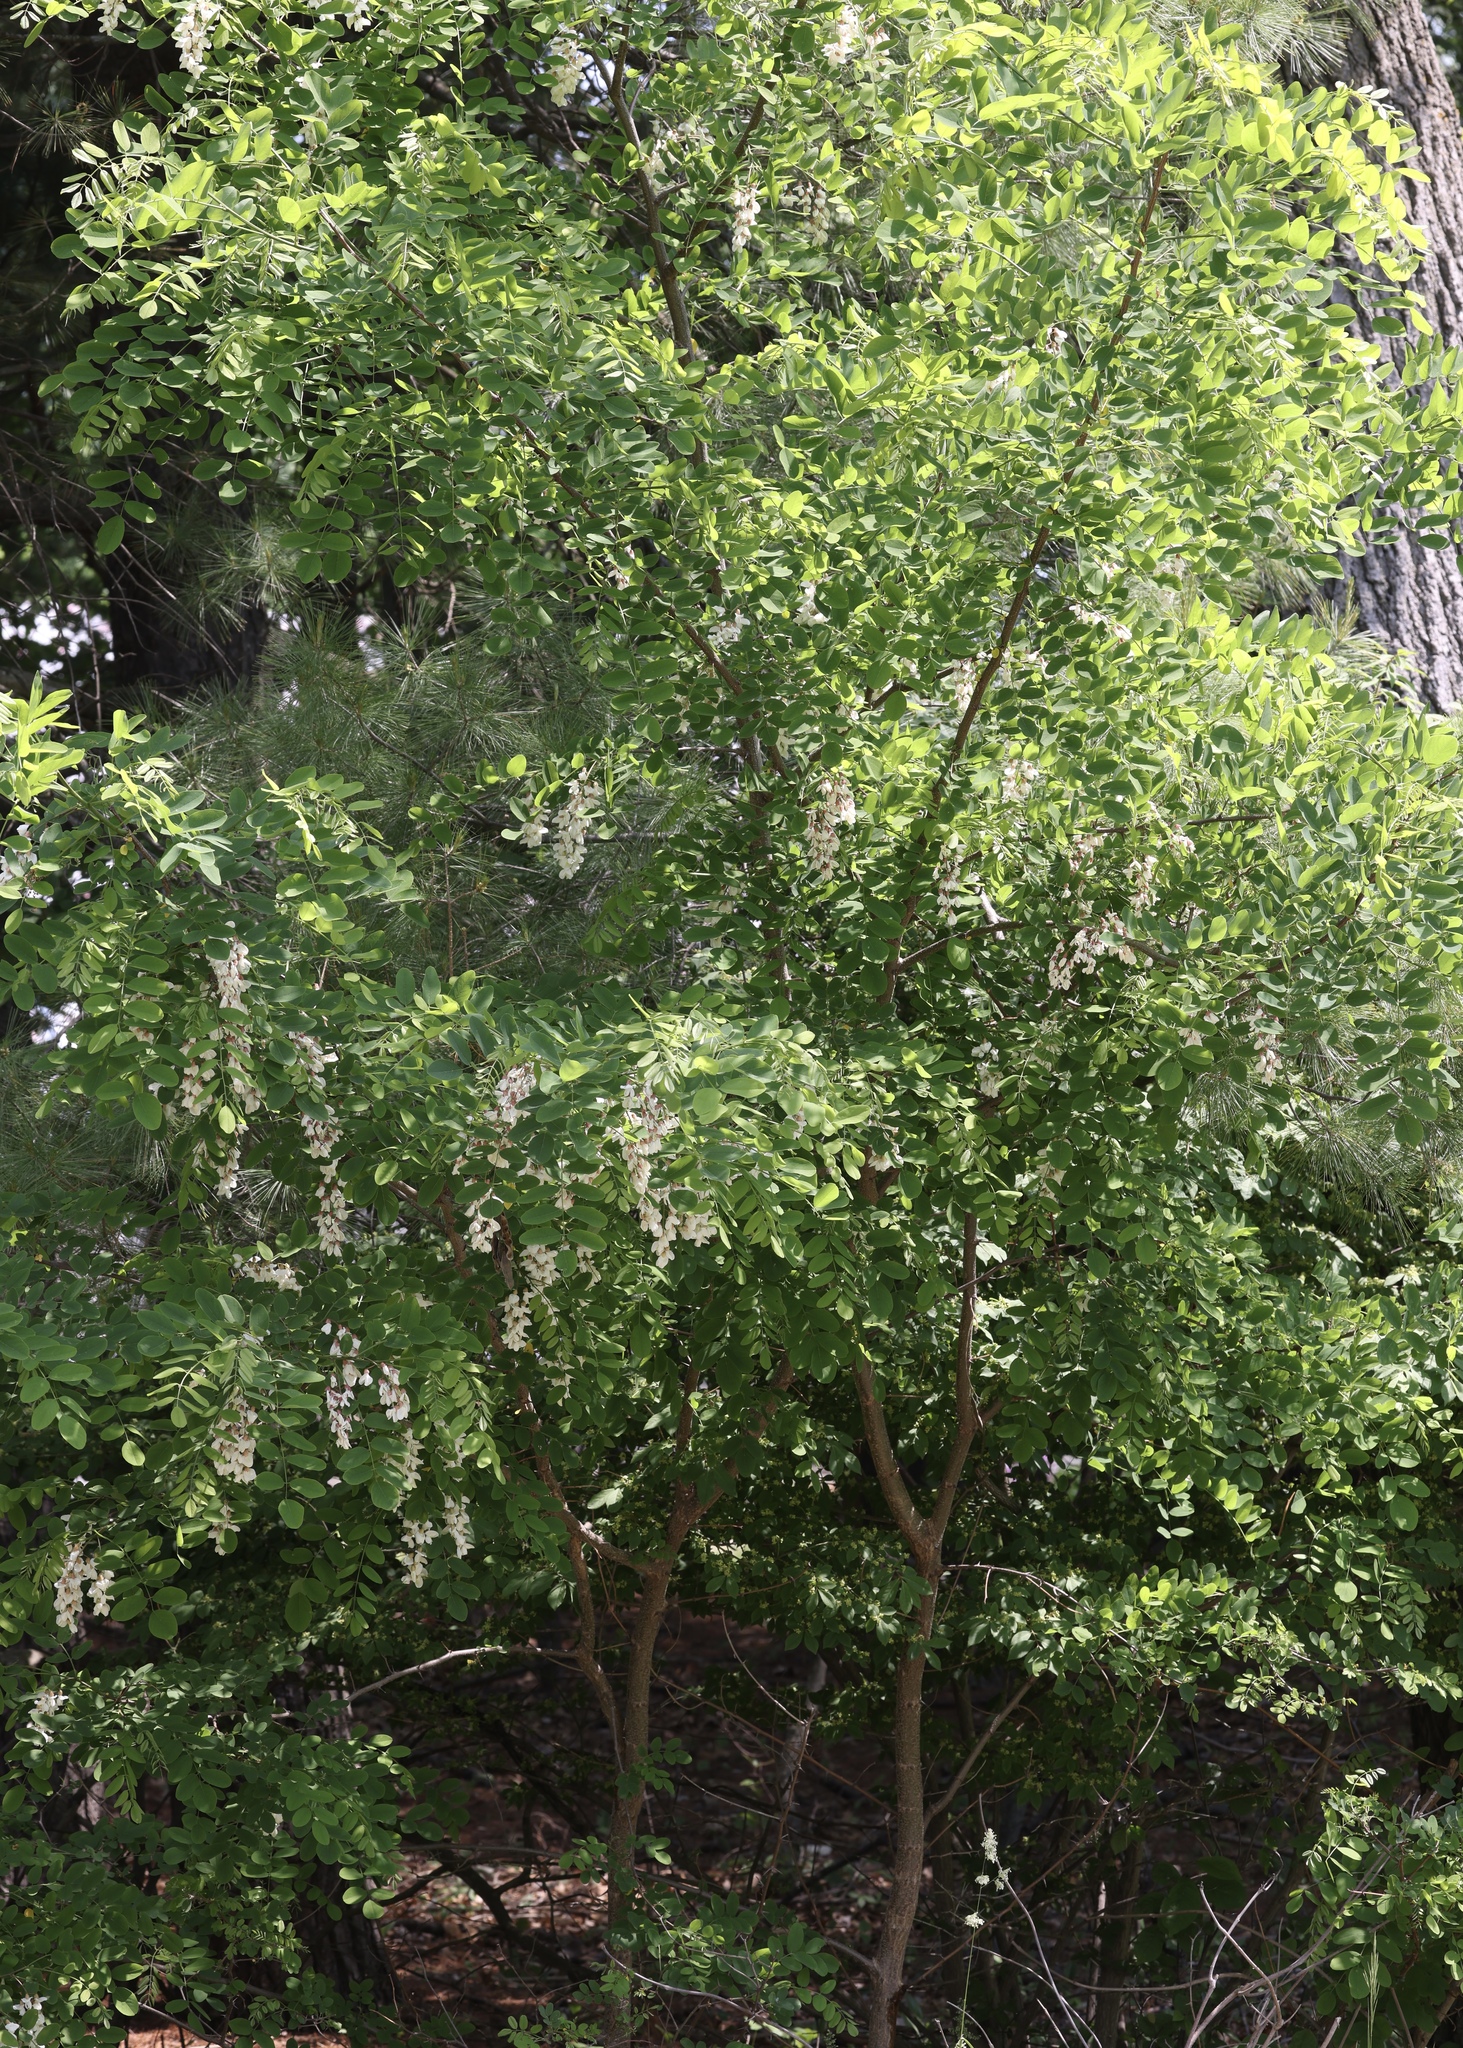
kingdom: Plantae
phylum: Tracheophyta
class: Magnoliopsida
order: Fabales
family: Fabaceae
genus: Robinia
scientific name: Robinia pseudoacacia
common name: Black locust
